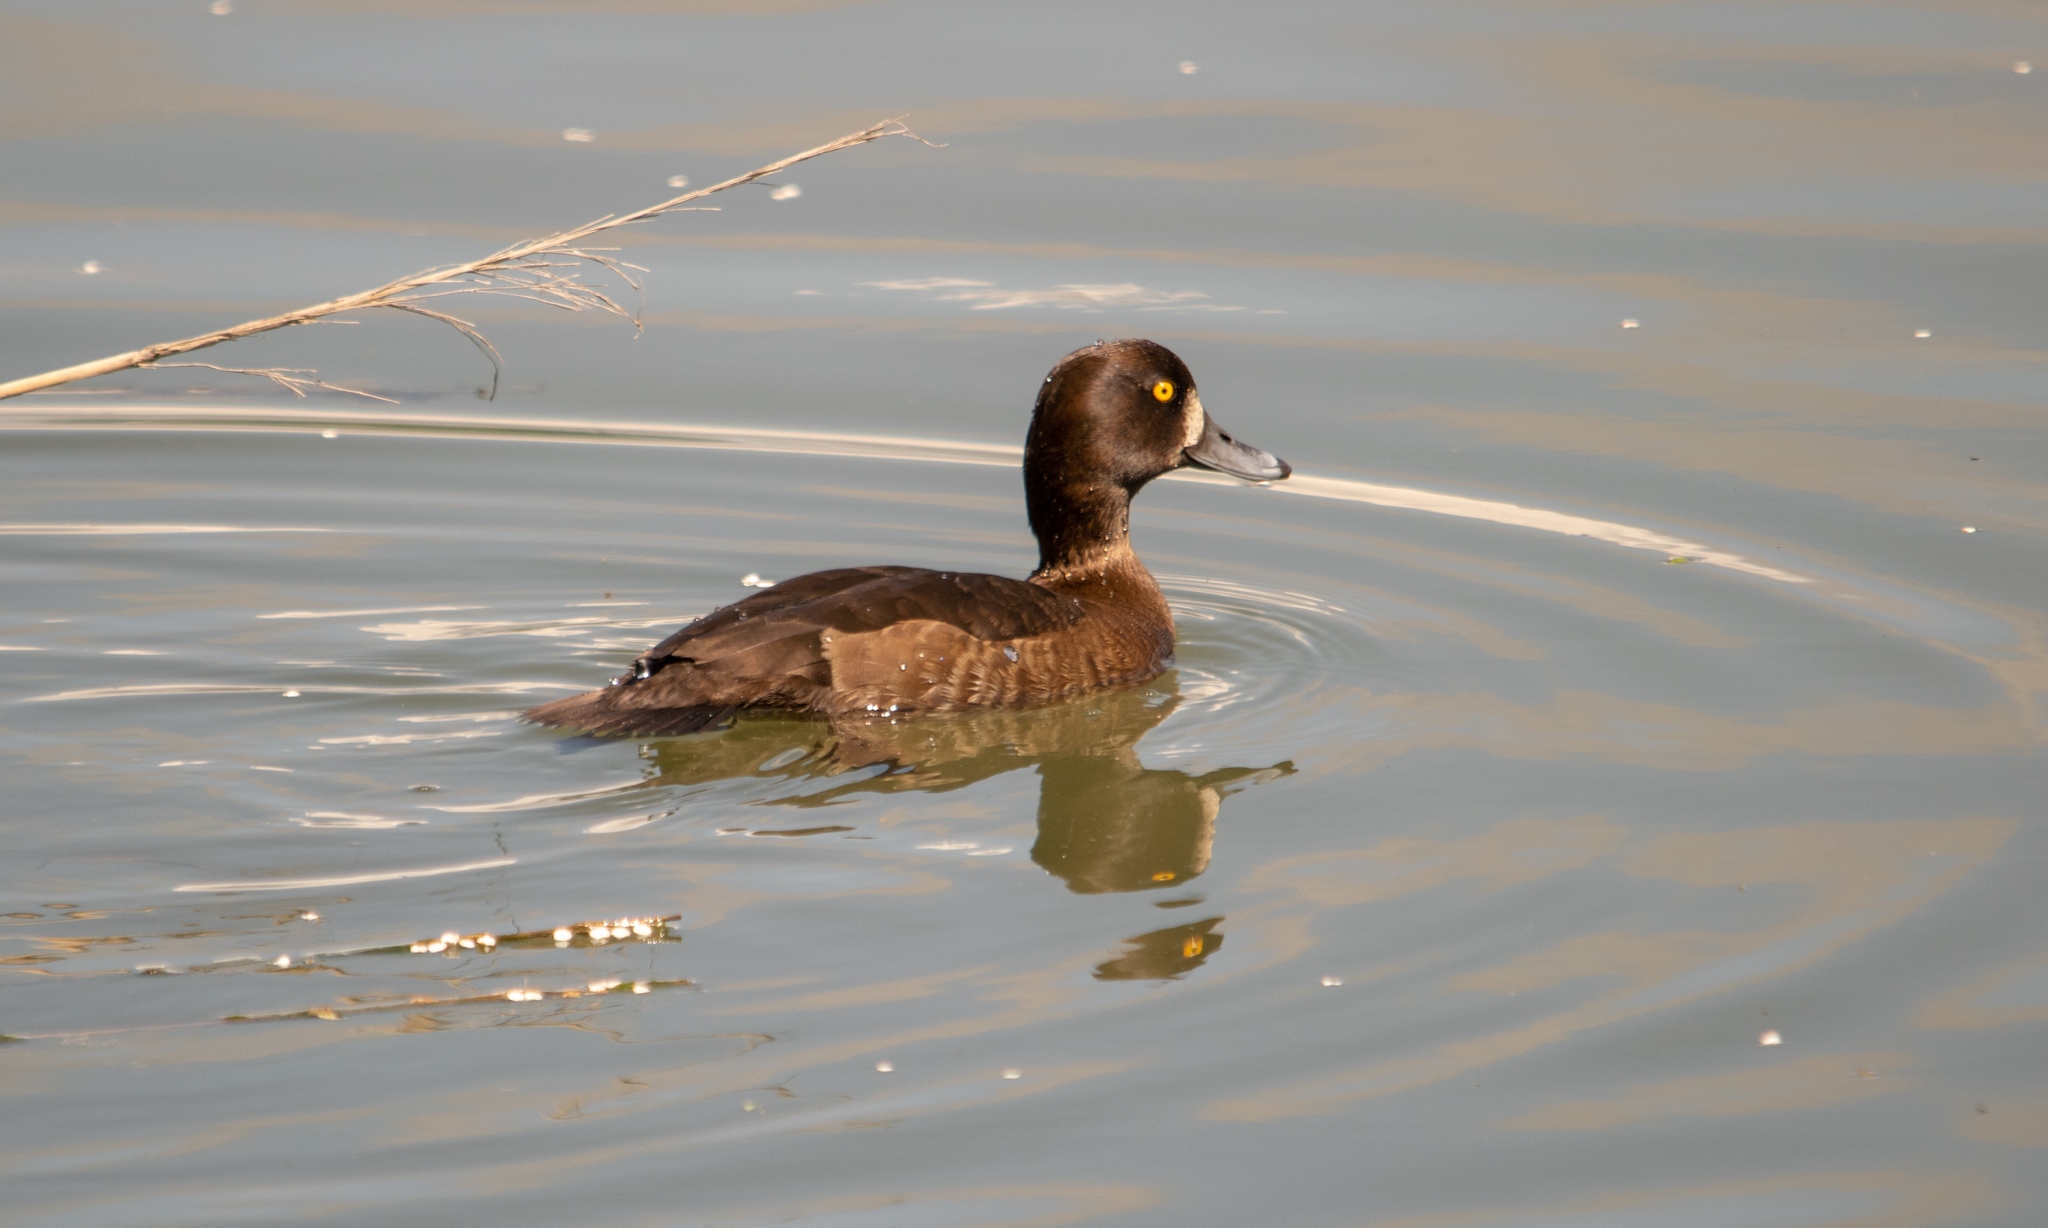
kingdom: Animalia
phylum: Chordata
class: Aves
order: Anseriformes
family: Anatidae
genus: Aythya
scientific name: Aythya fuligula
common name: Tufted duck
